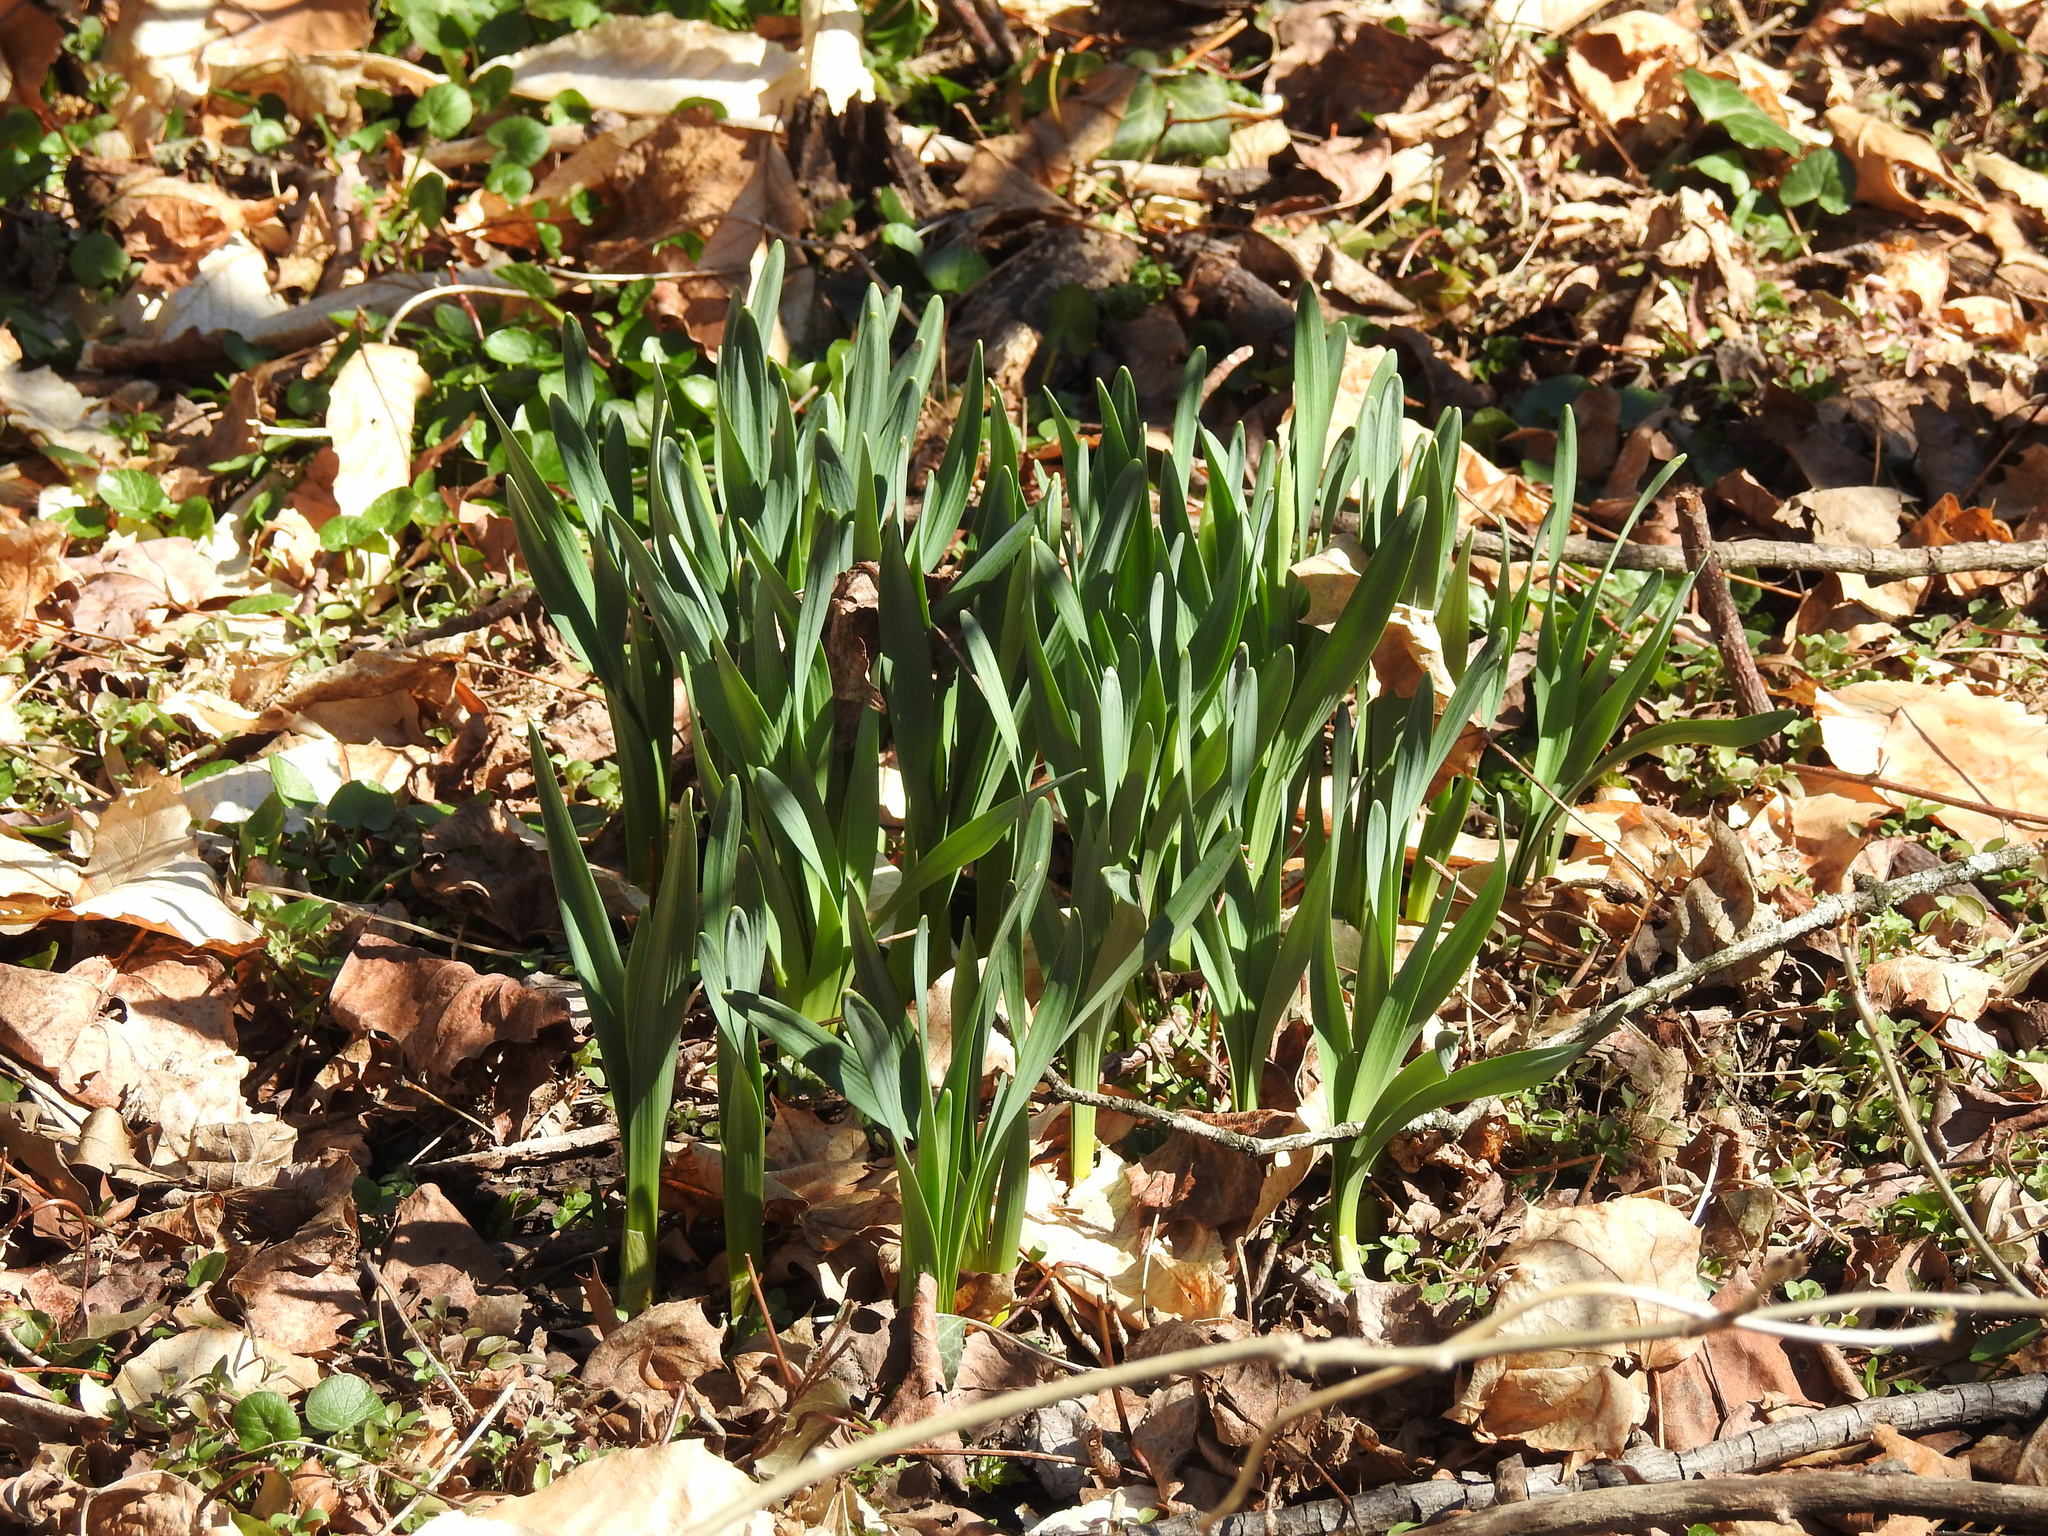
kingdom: Plantae
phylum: Tracheophyta
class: Liliopsida
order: Asparagales
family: Amaryllidaceae
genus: Narcissus
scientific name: Narcissus pseudonarcissus
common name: Daffodil
